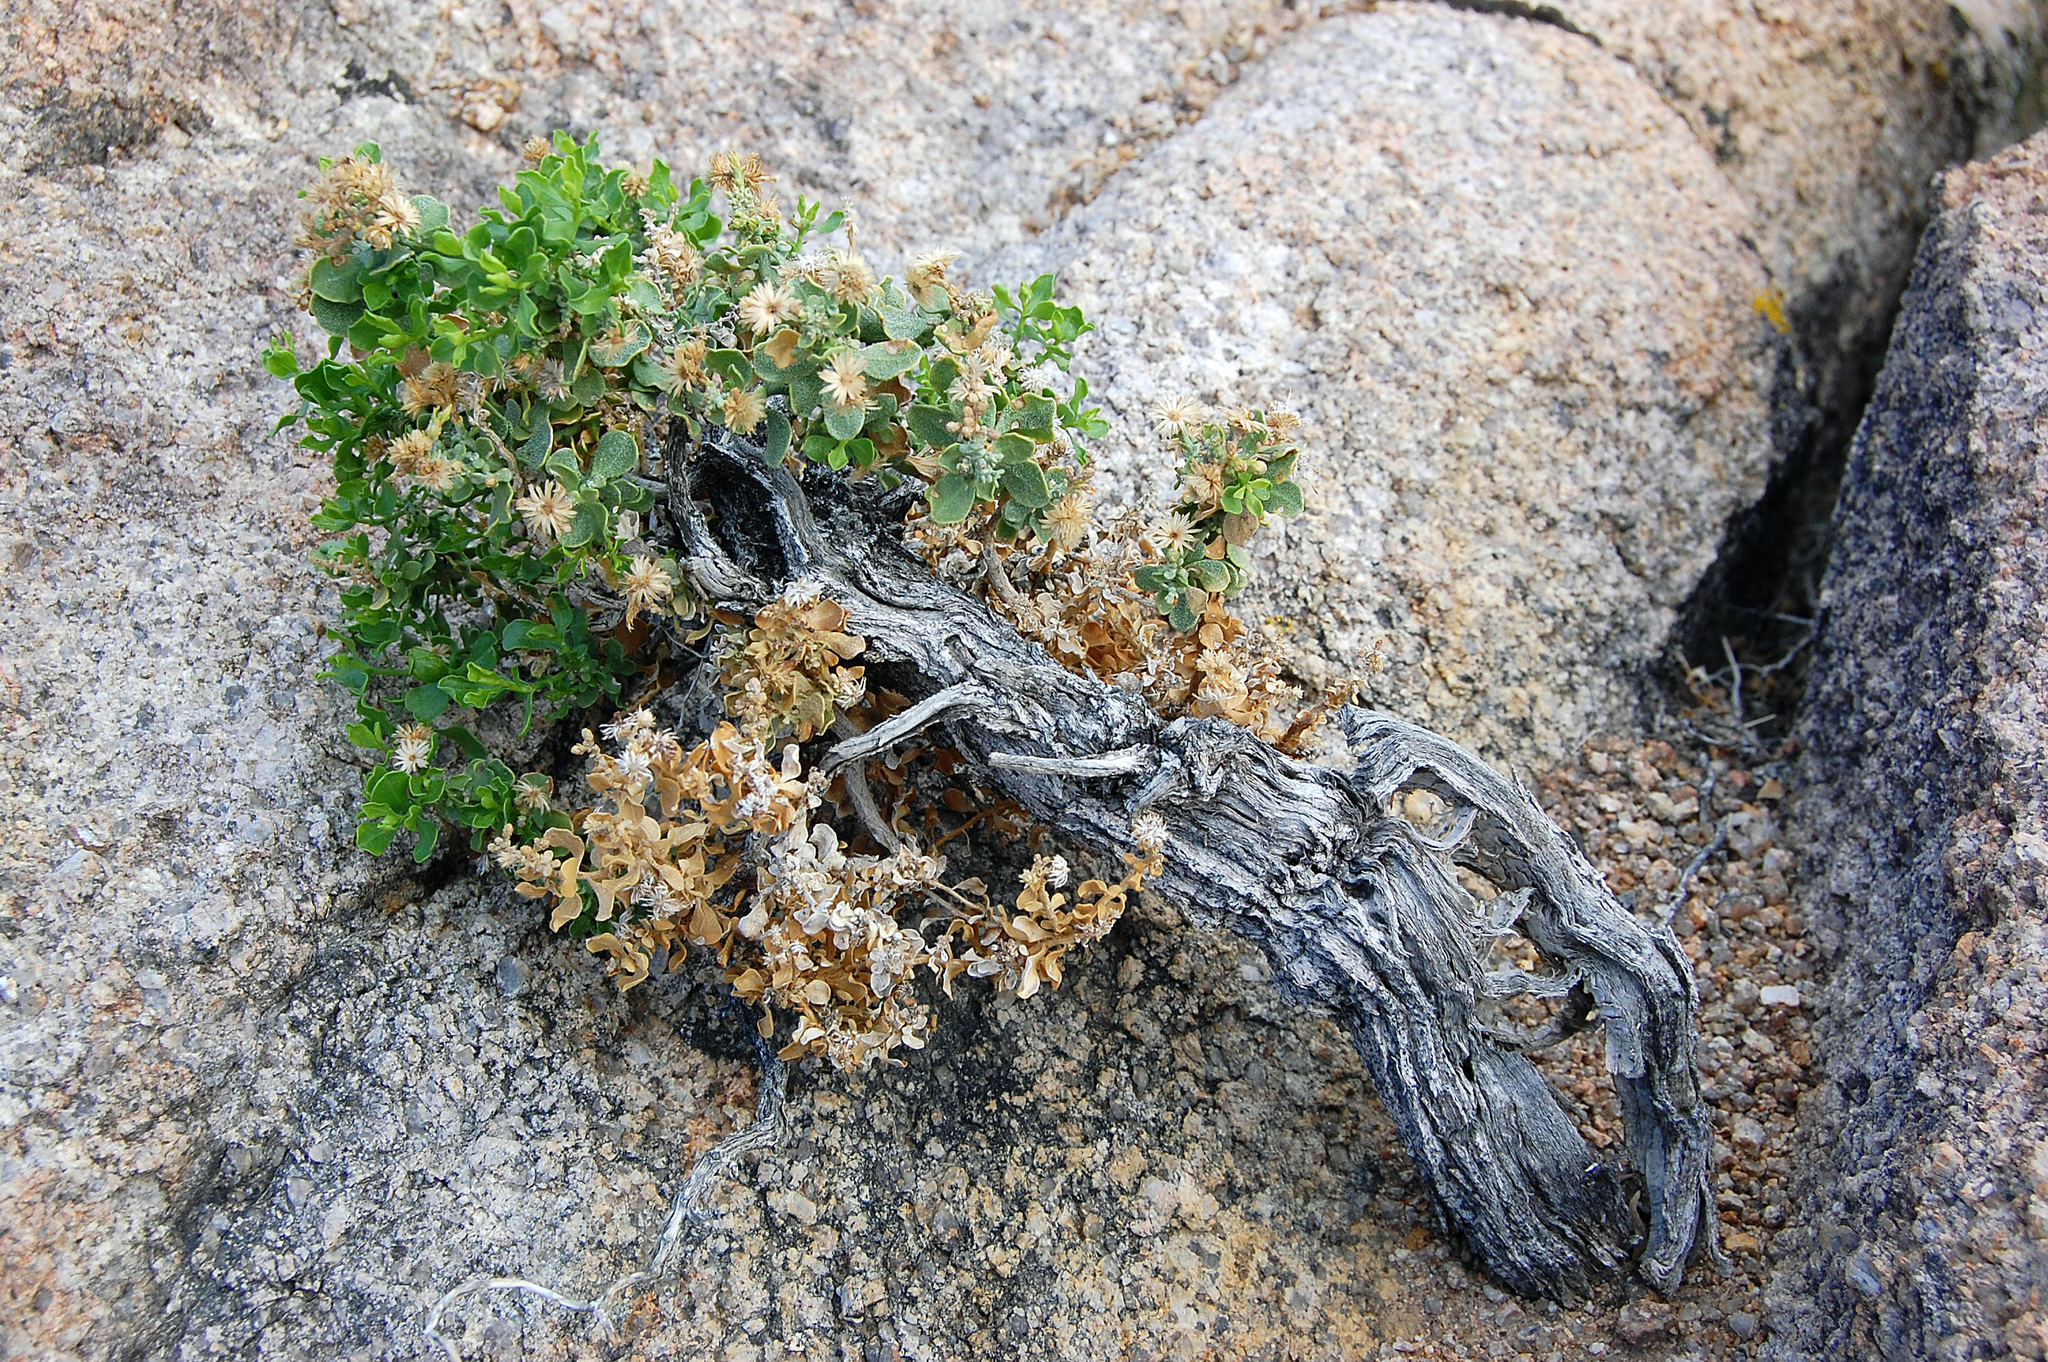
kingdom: Plantae
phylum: Tracheophyta
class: Magnoliopsida
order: Asterales
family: Asteraceae
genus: Ericameria
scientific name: Ericameria cuneata
